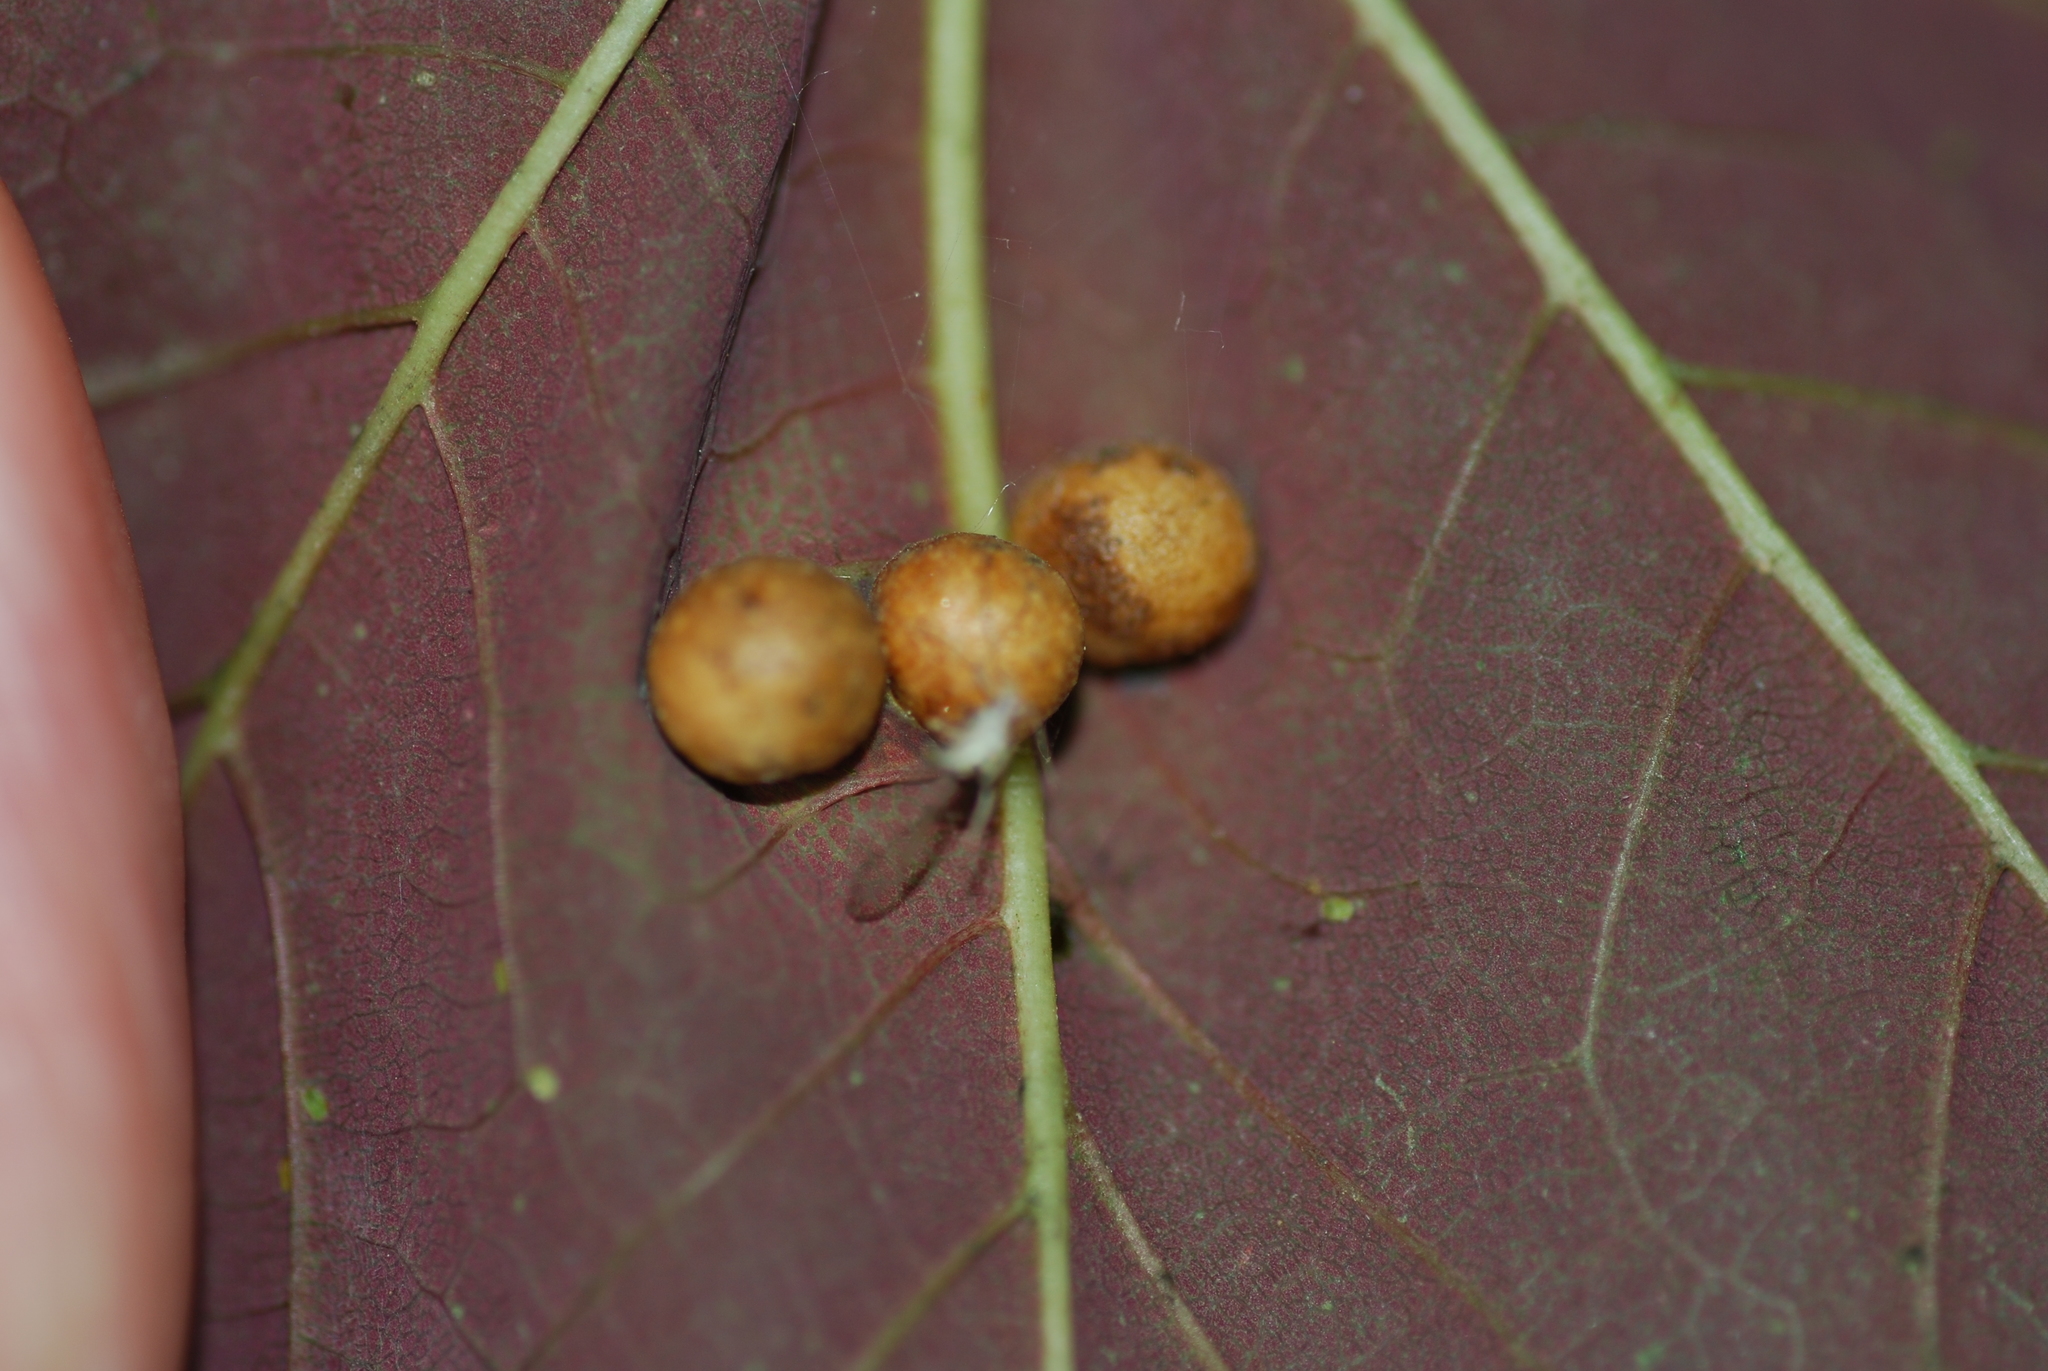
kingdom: Animalia
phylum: Arthropoda
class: Insecta
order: Hymenoptera
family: Cynipidae
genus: Pediaspis
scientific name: Pediaspis aceris
